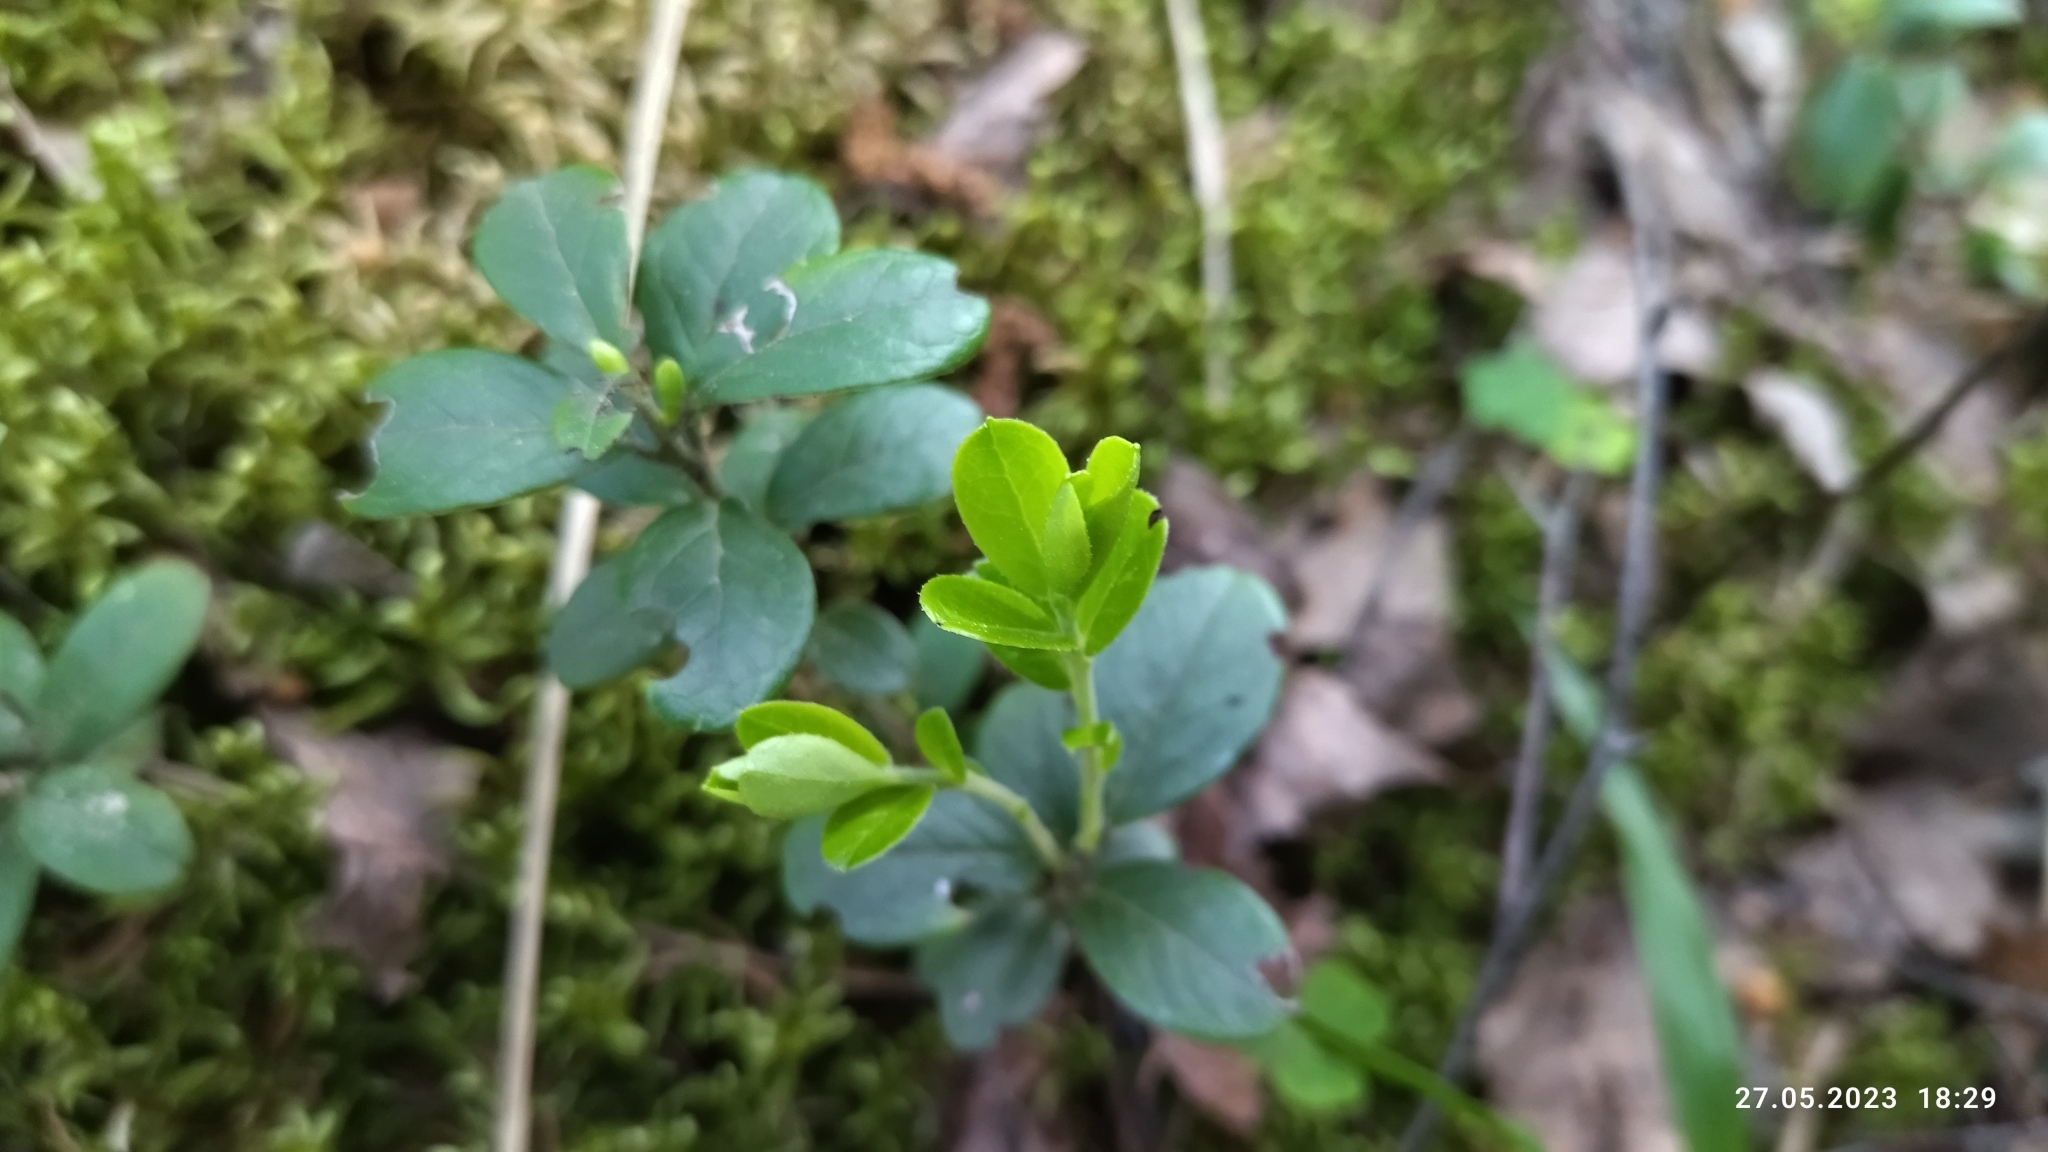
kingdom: Plantae
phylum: Tracheophyta
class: Magnoliopsida
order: Ericales
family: Ericaceae
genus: Vaccinium
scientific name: Vaccinium vitis-idaea
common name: Cowberry
